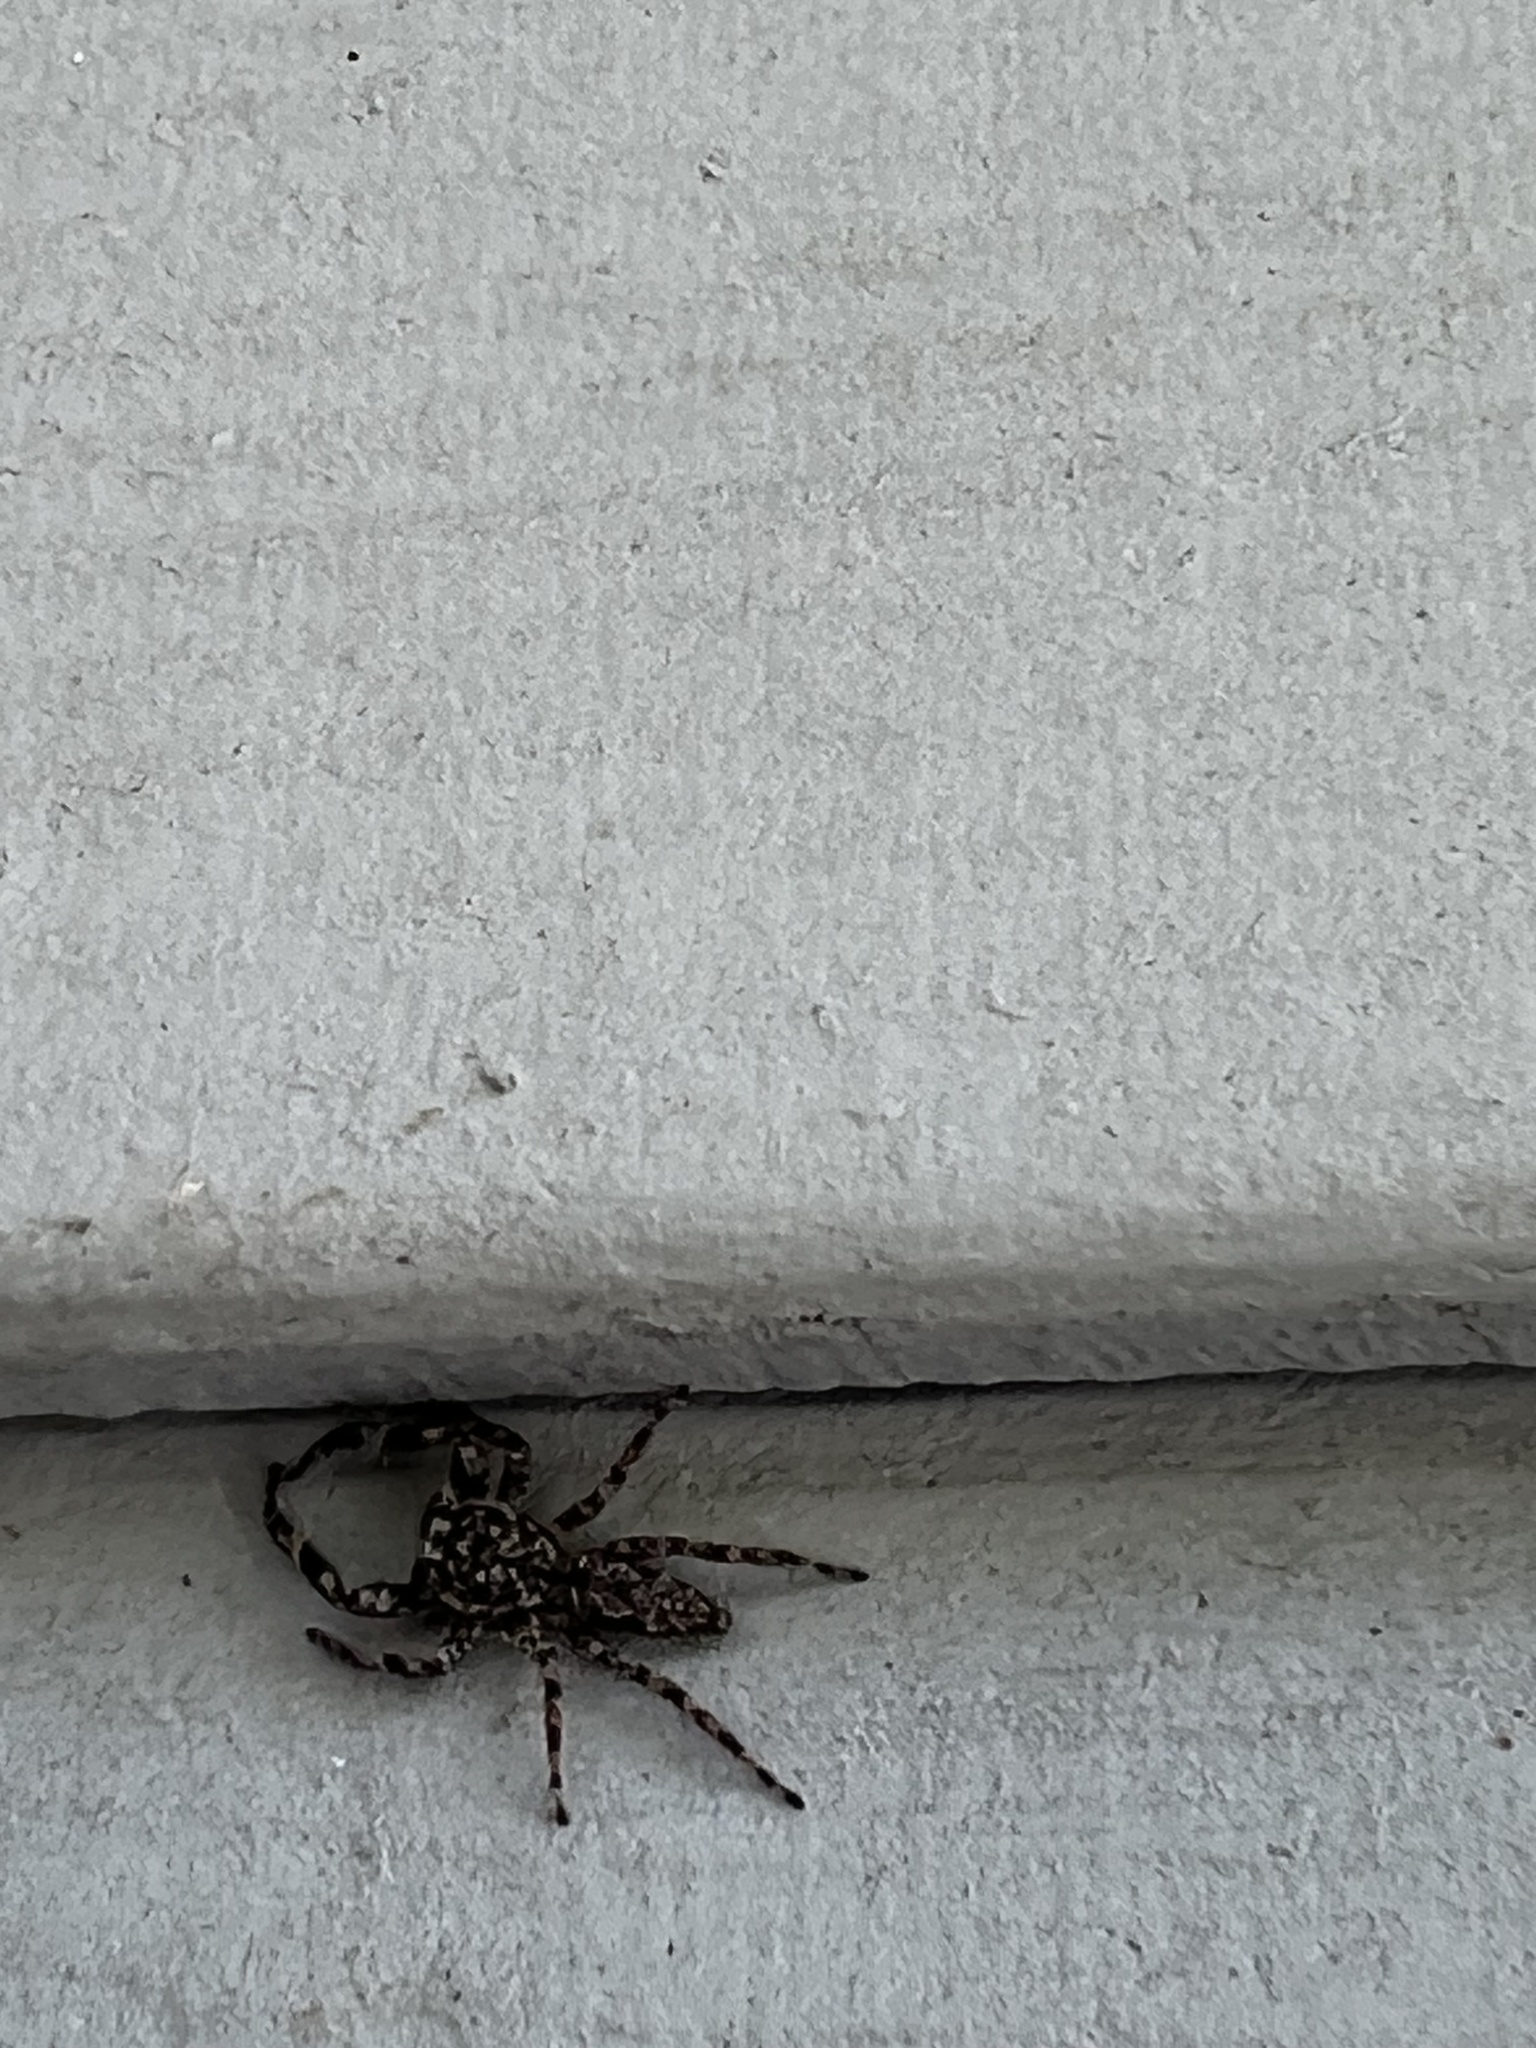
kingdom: Animalia
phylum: Arthropoda
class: Arachnida
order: Araneae
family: Salticidae
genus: Platycryptus
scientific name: Platycryptus undatus
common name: Tan jumping spider
